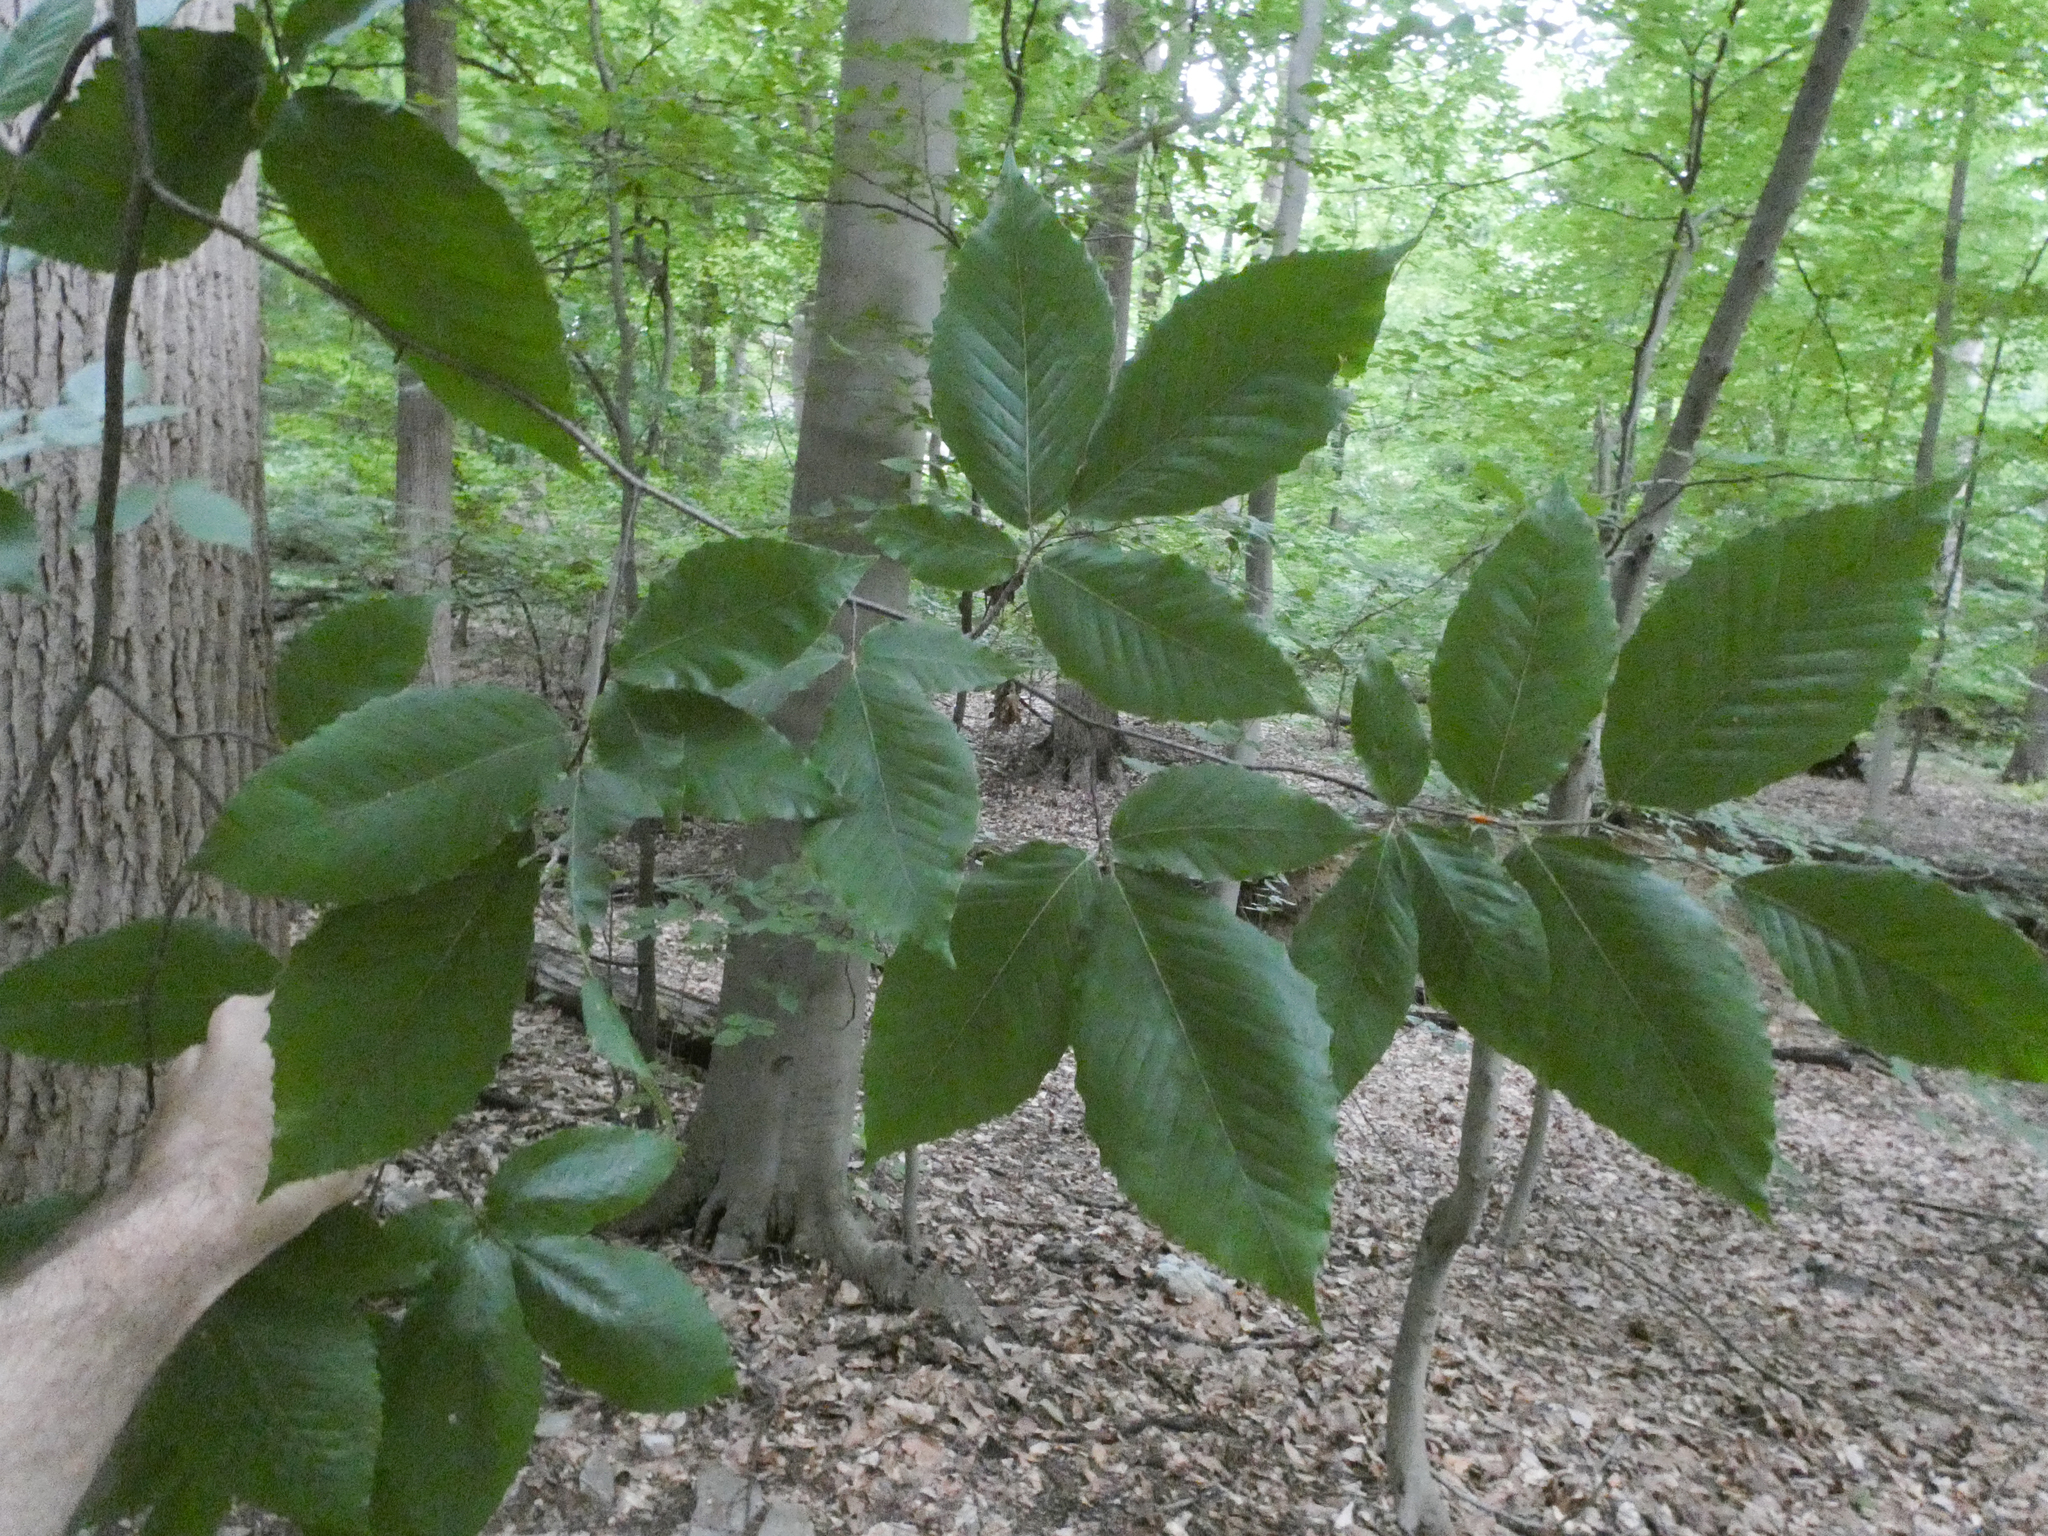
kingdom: Plantae
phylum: Tracheophyta
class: Magnoliopsida
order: Fagales
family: Fagaceae
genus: Fagus
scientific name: Fagus grandifolia
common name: American beech
